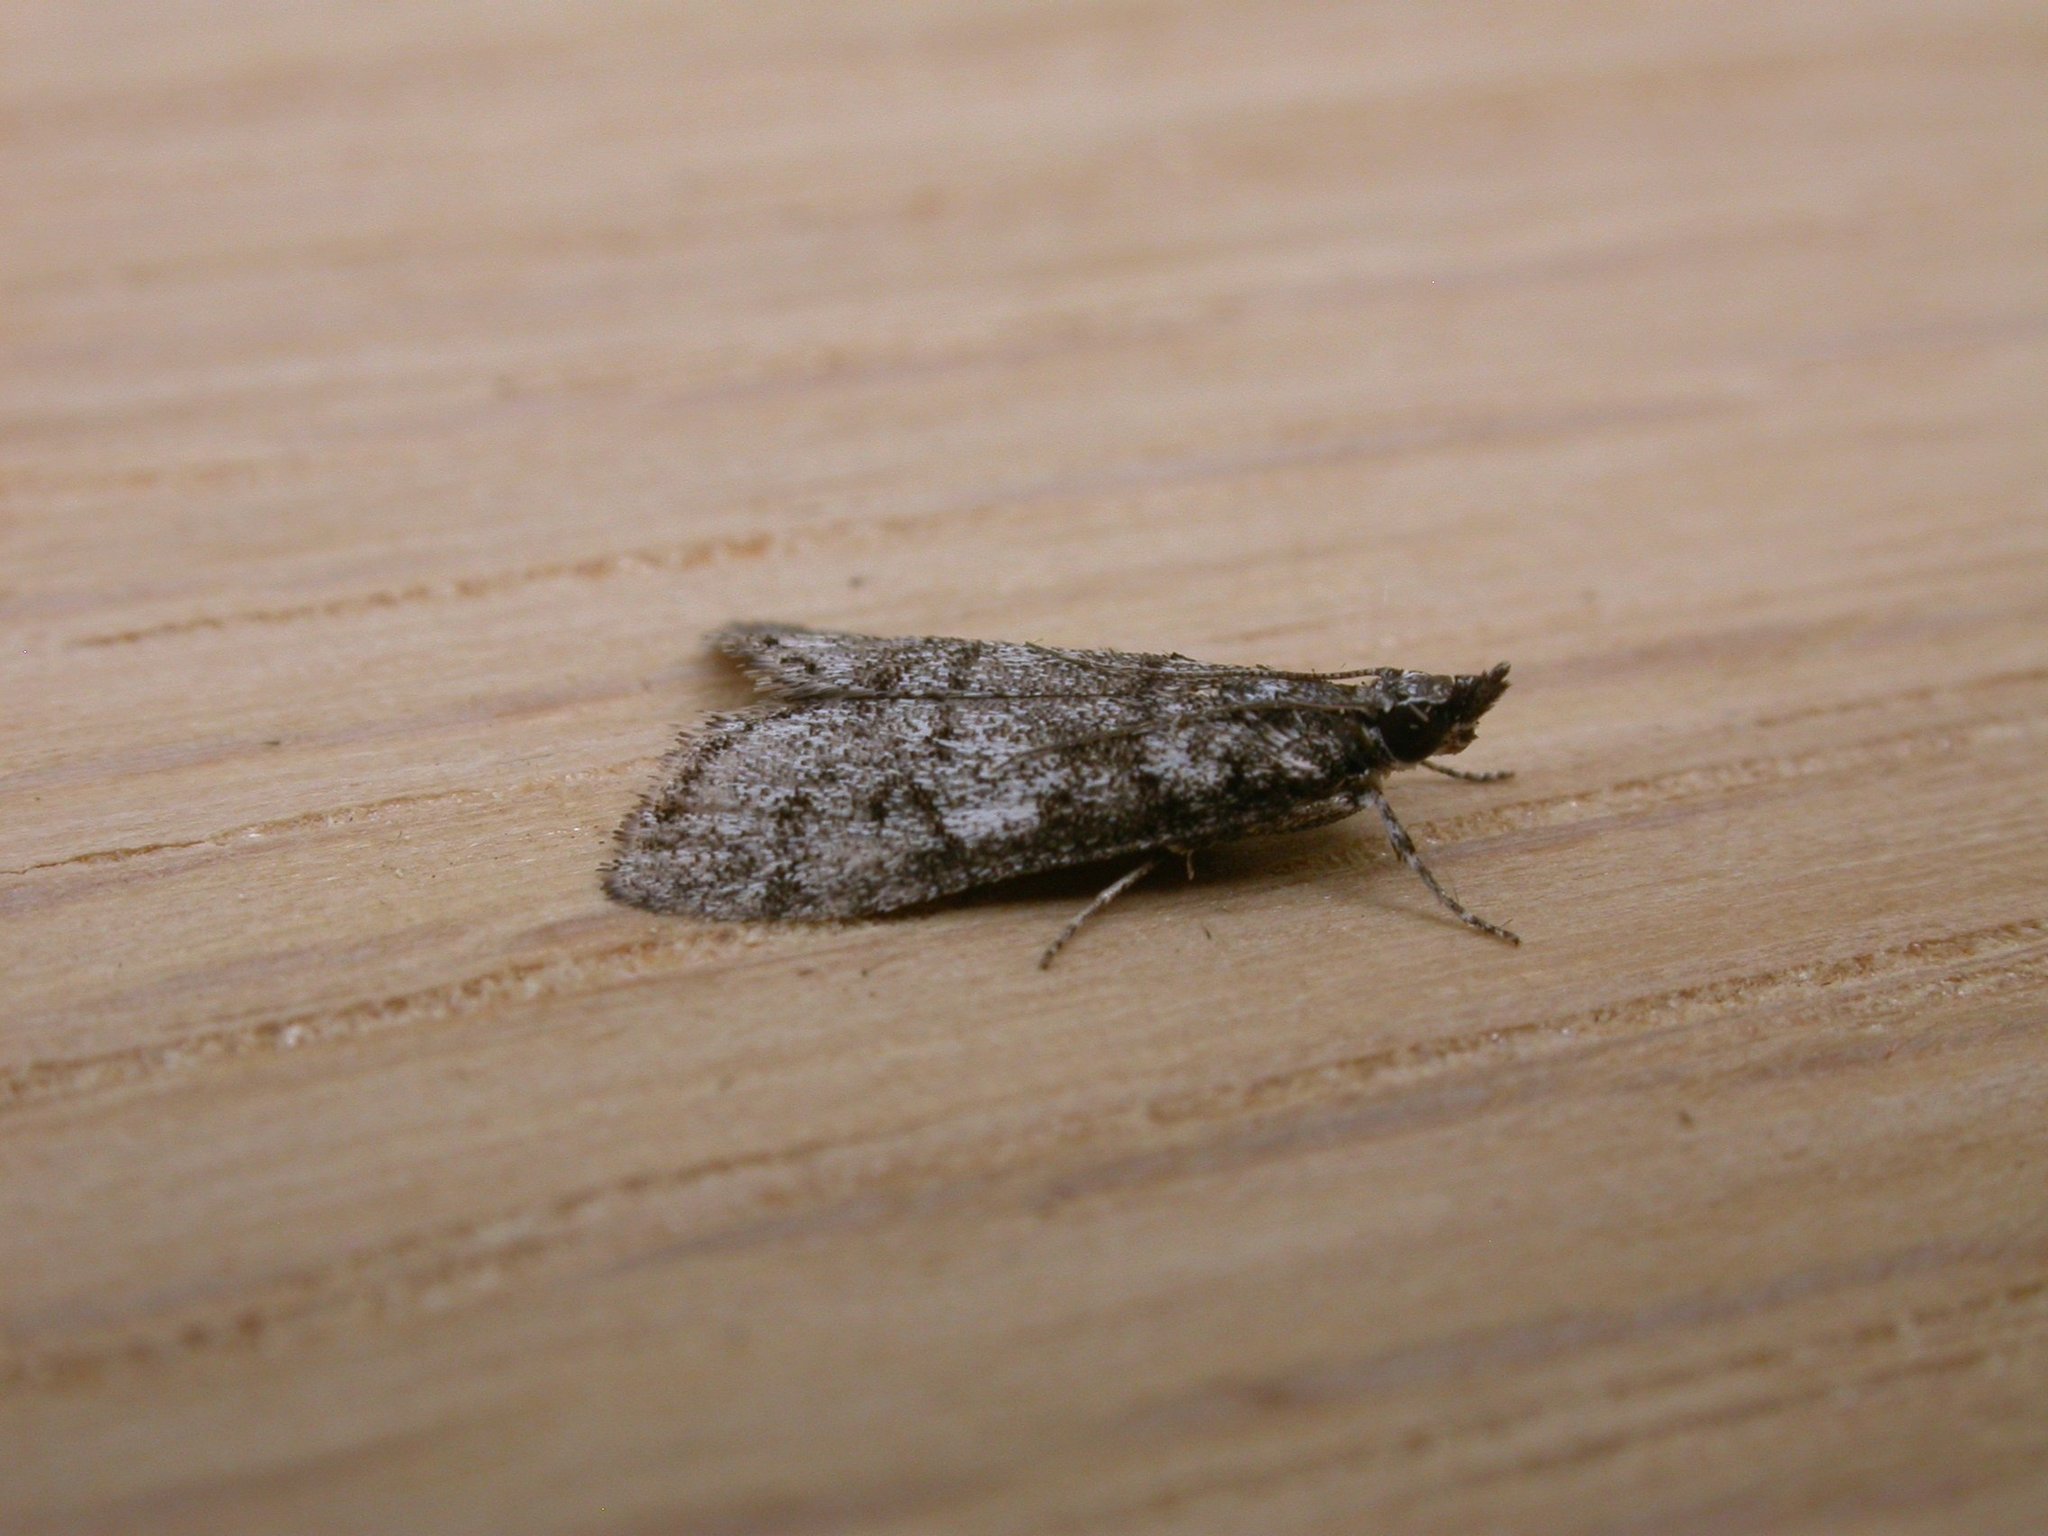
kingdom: Animalia
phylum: Arthropoda
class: Insecta
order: Lepidoptera
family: Crambidae
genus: Scoparia
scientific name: Scoparia paracycla
